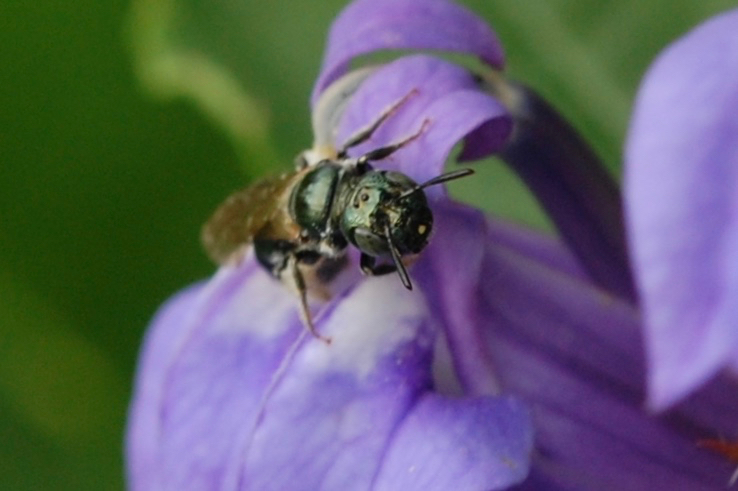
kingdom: Animalia
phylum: Arthropoda
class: Insecta
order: Hymenoptera
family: Apidae
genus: Zadontomerus
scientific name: Zadontomerus
